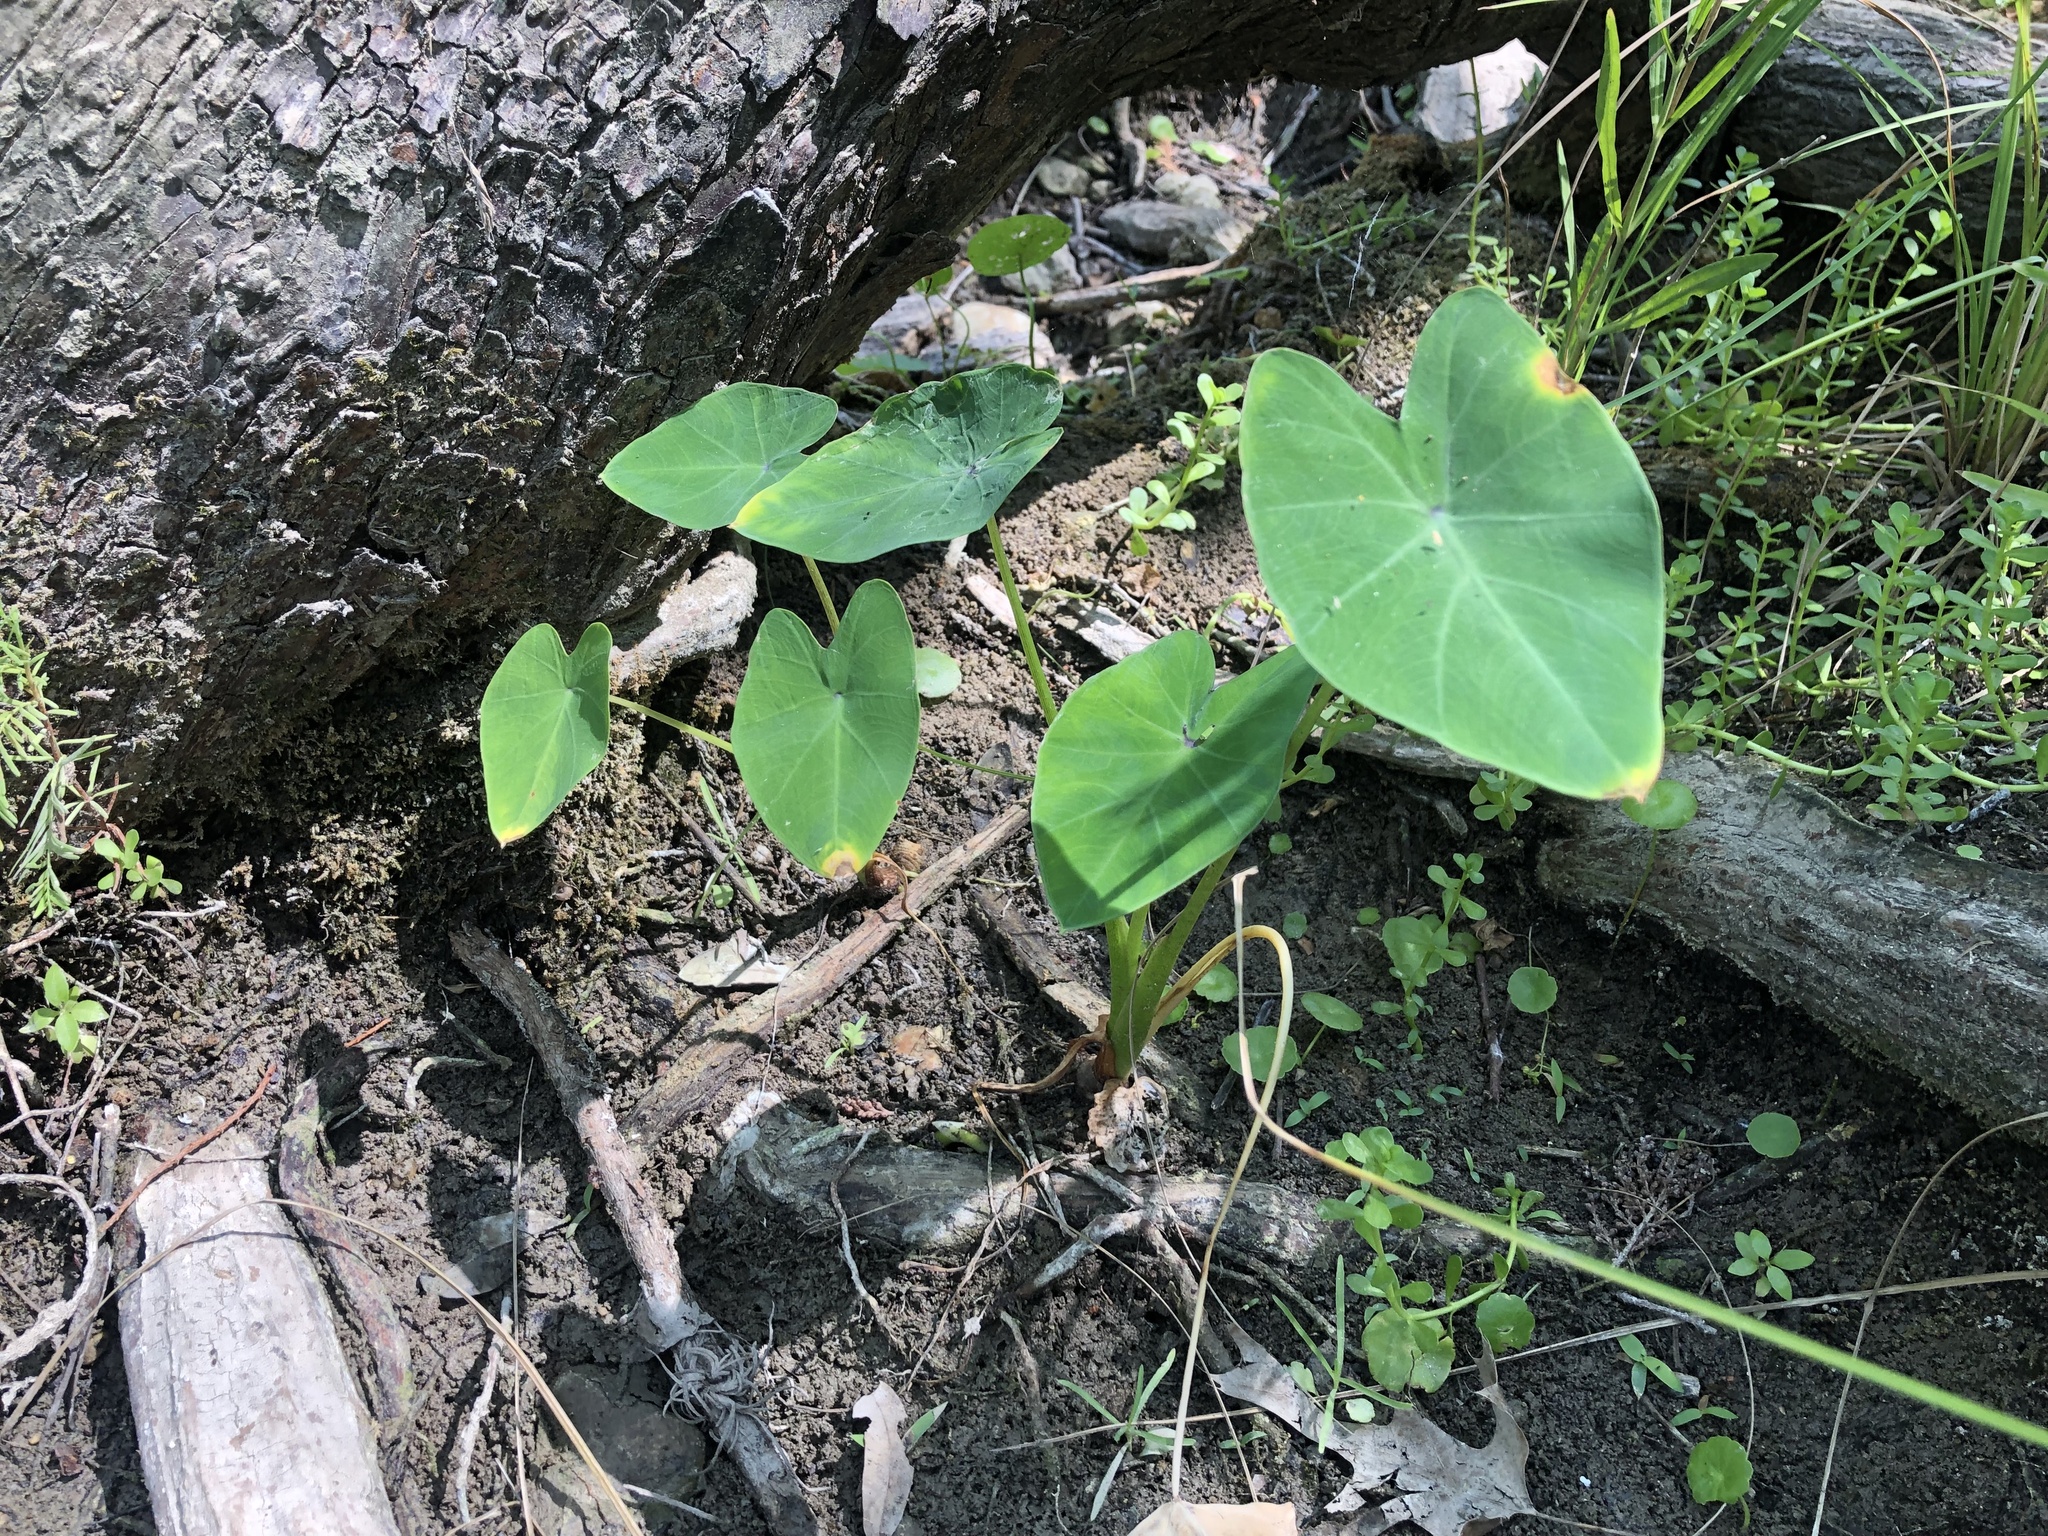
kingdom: Plantae
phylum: Tracheophyta
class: Liliopsida
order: Alismatales
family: Araceae
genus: Colocasia
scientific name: Colocasia esculenta
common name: Taro
